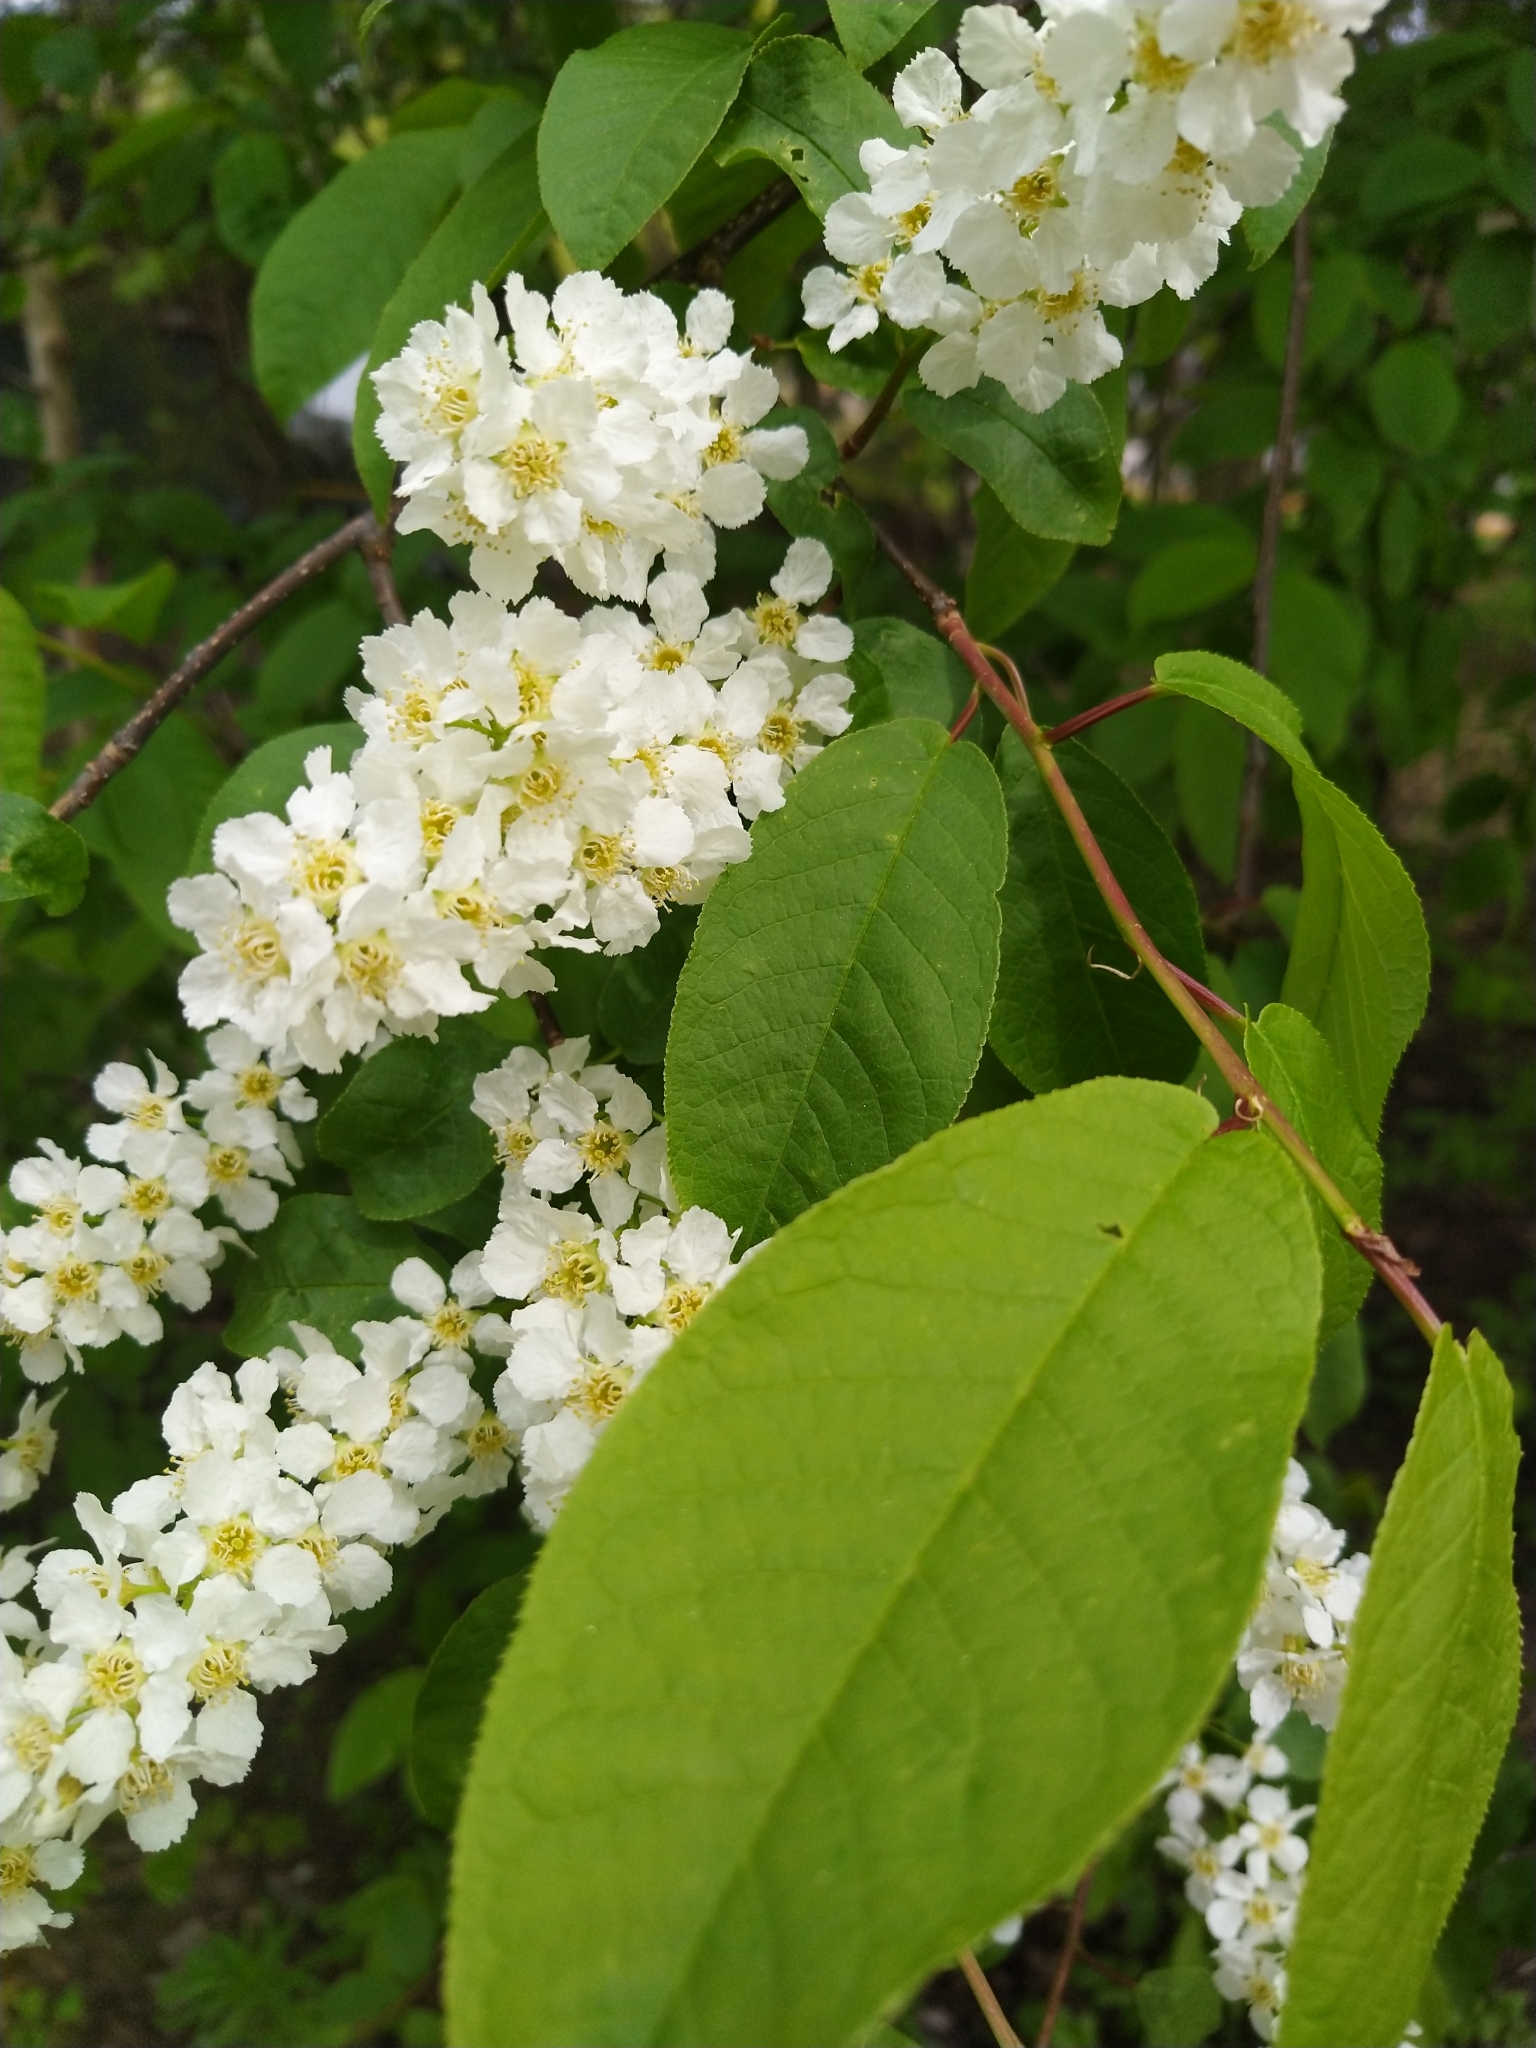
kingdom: Plantae
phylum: Tracheophyta
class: Magnoliopsida
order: Rosales
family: Rosaceae
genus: Prunus
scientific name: Prunus padus
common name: Bird cherry
